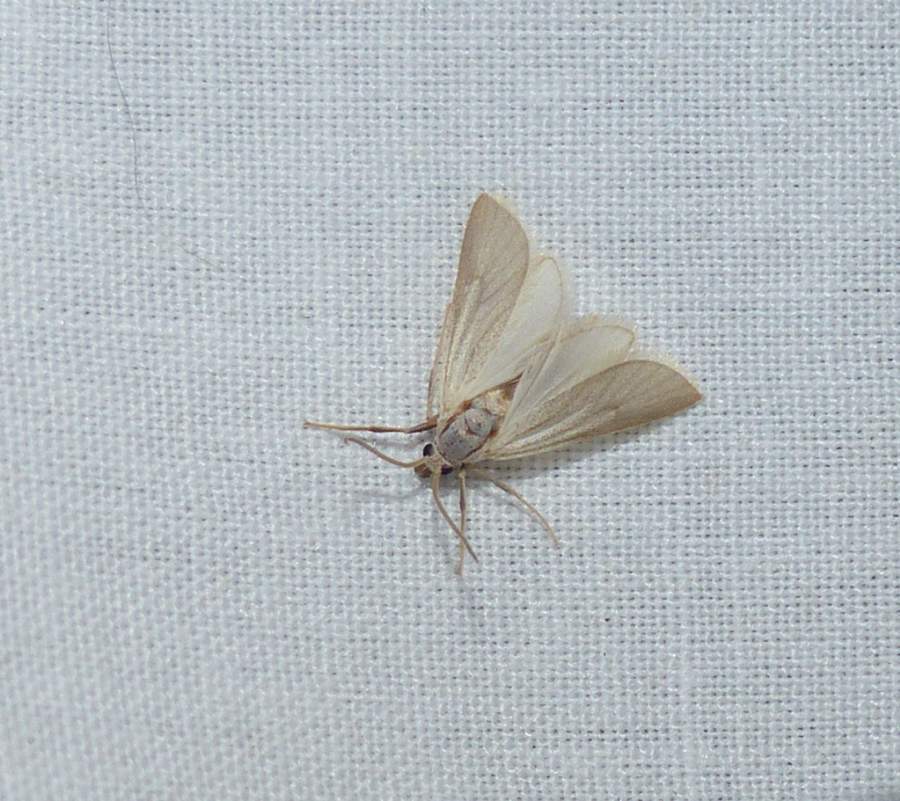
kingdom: Animalia
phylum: Arthropoda
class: Insecta
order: Lepidoptera
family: Crambidae
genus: Acentria
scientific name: Acentria ephemerella
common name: European water moth
